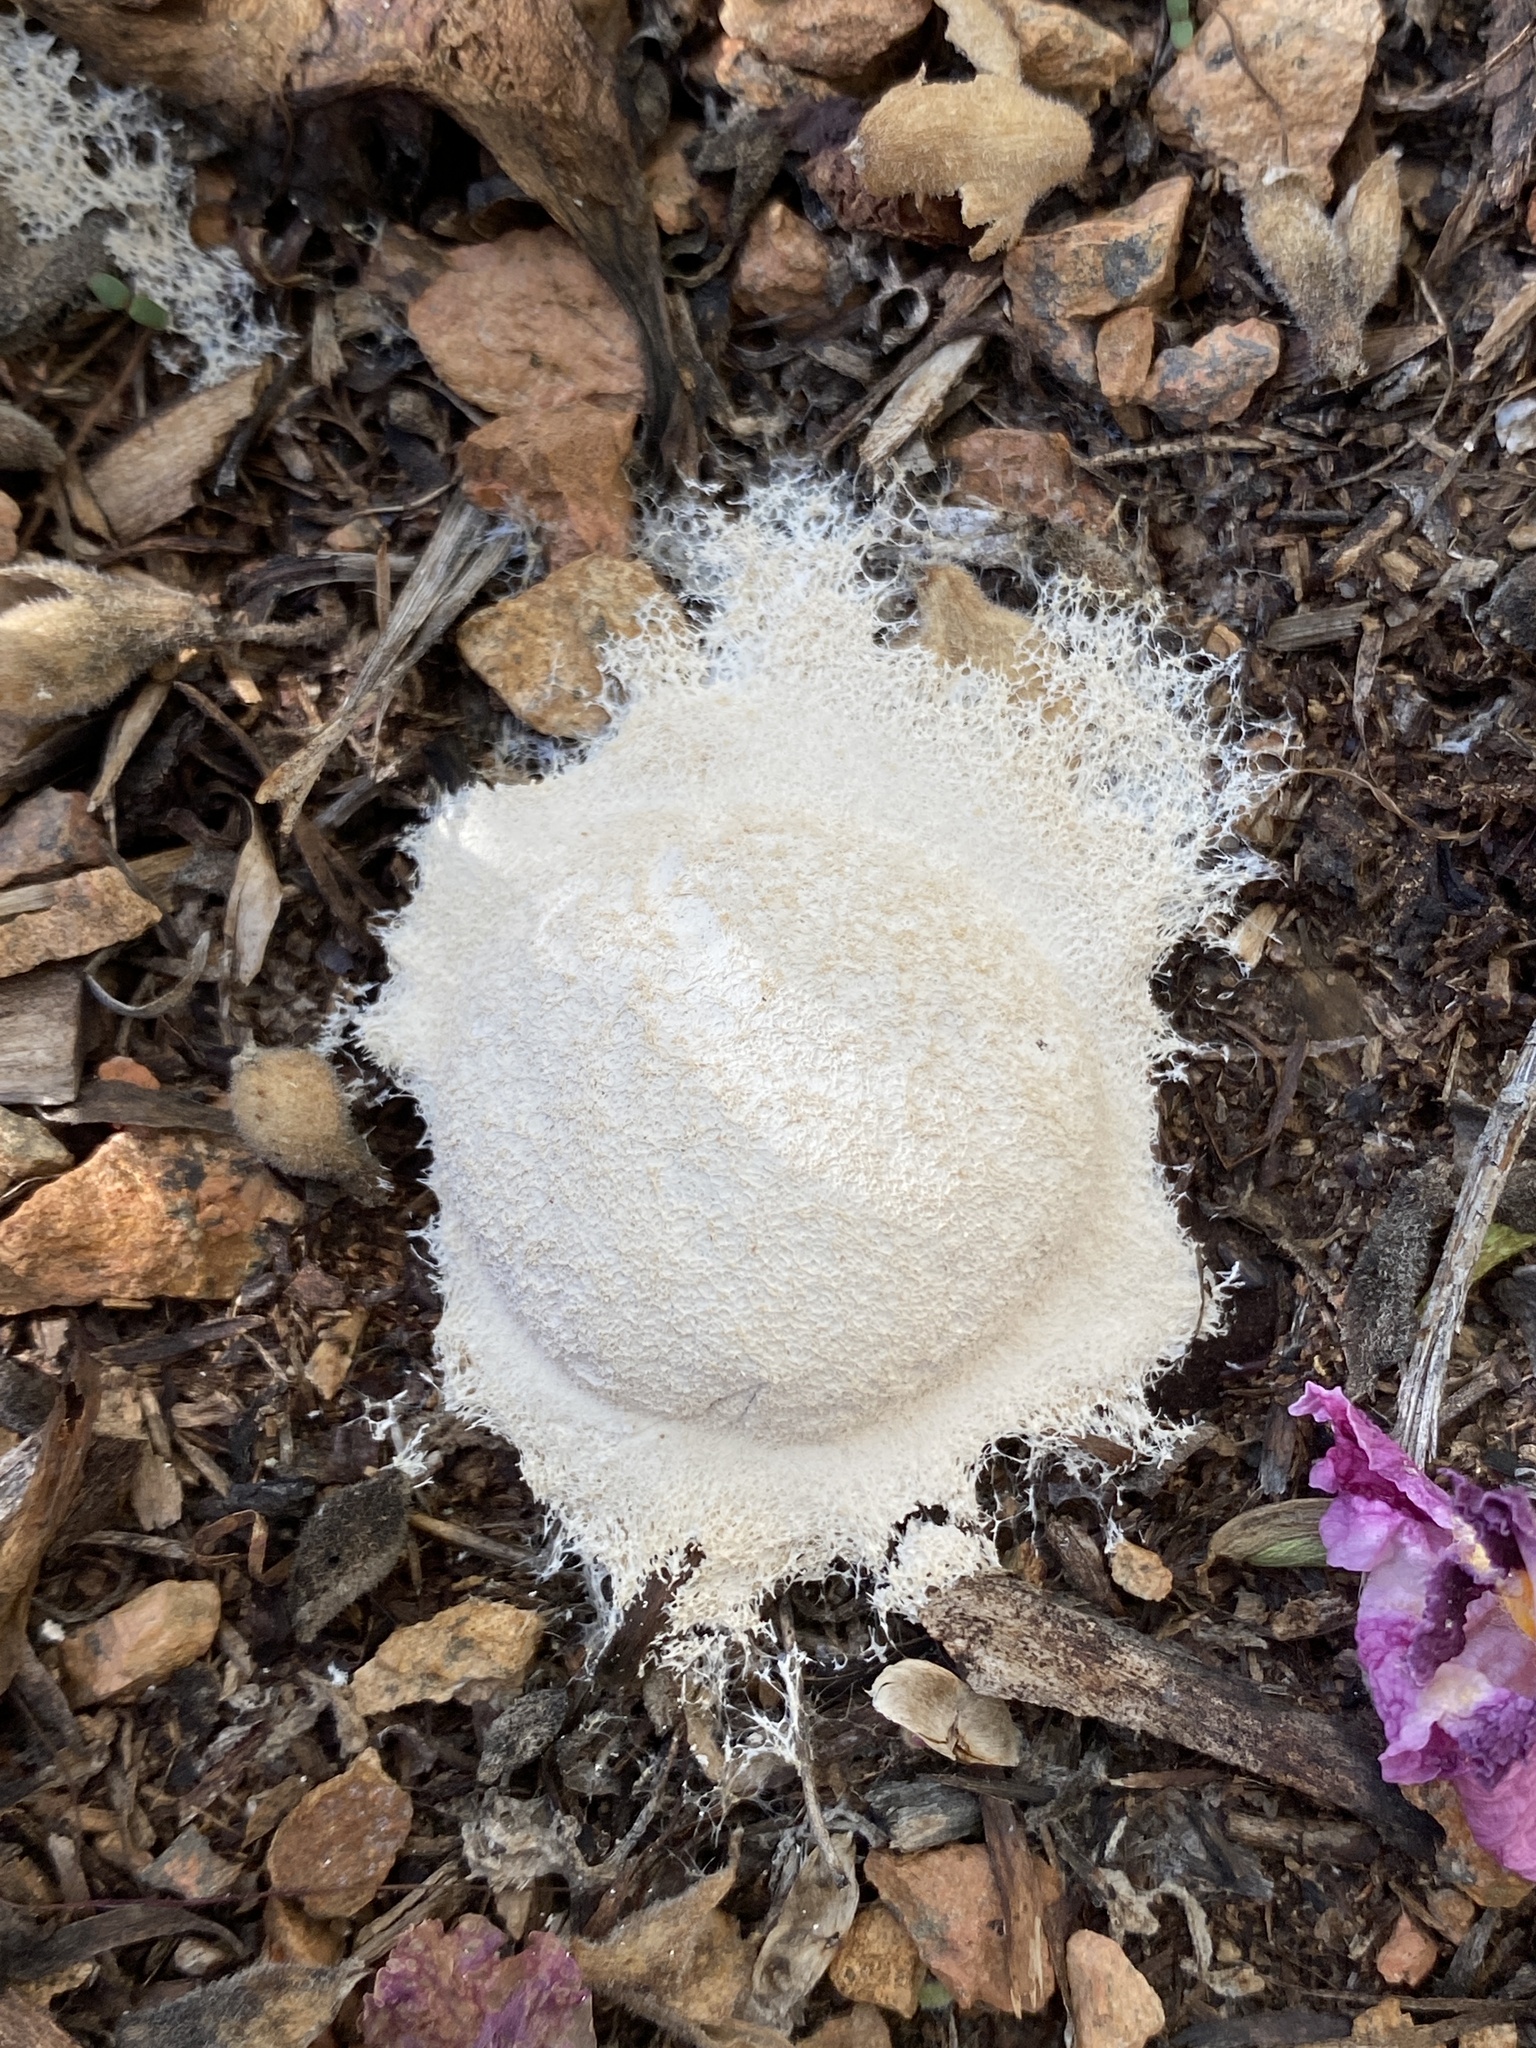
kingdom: Protozoa
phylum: Mycetozoa
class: Myxomycetes
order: Physarales
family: Physaraceae
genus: Fuligo
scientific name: Fuligo
